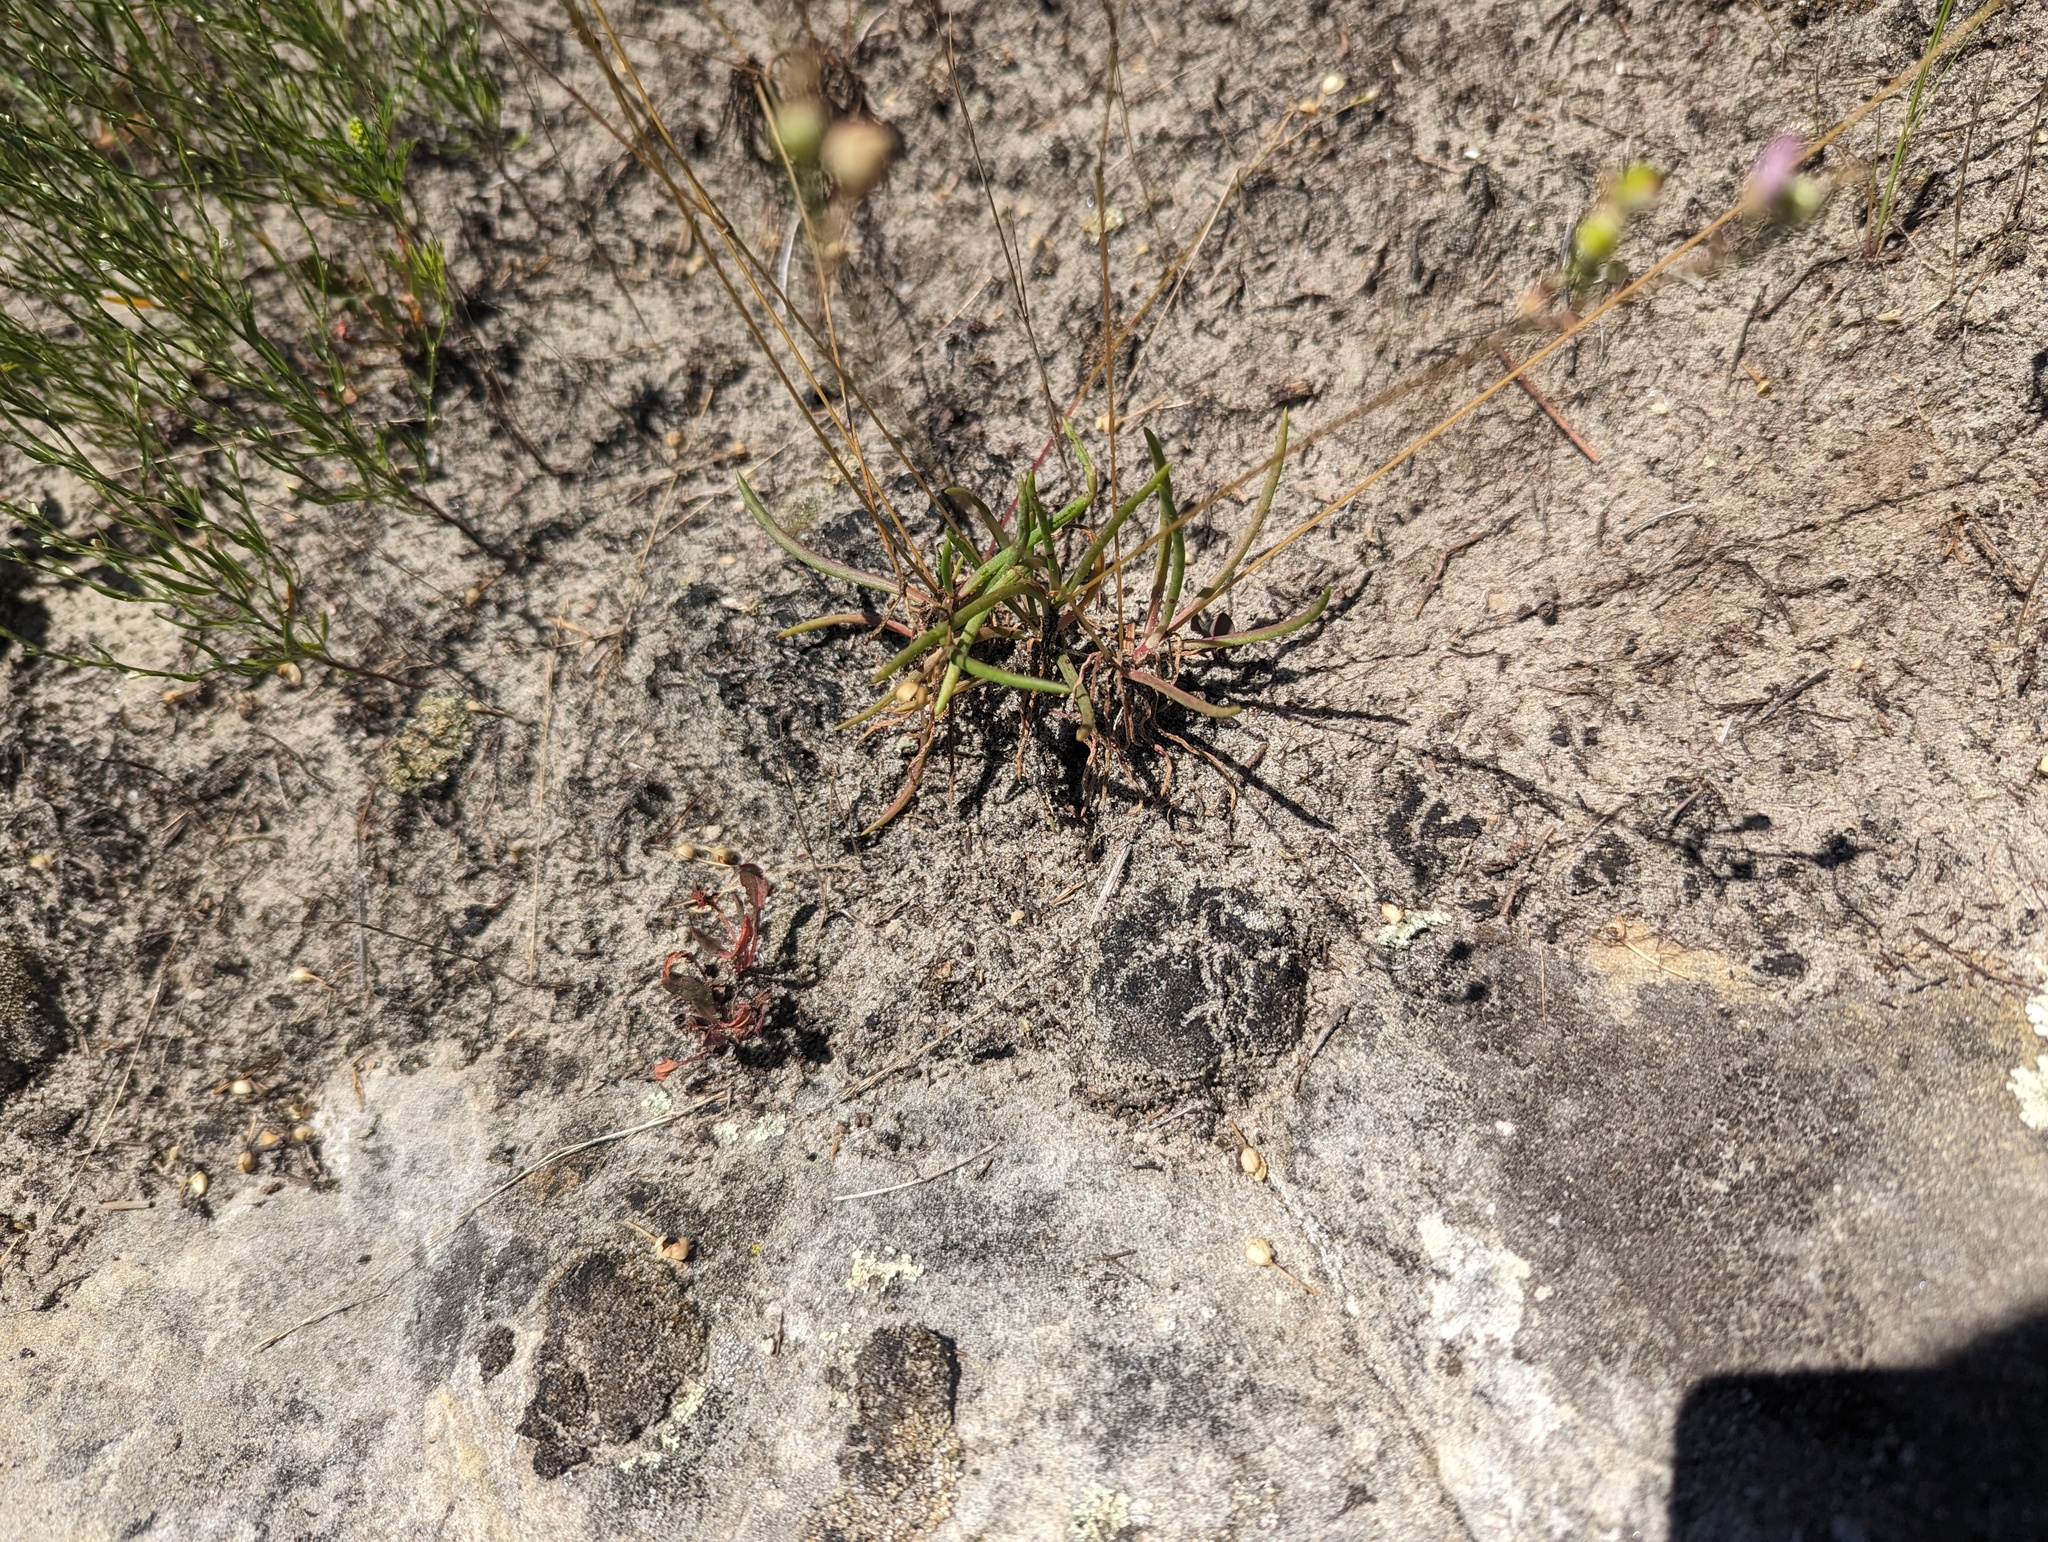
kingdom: Plantae
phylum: Tracheophyta
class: Magnoliopsida
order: Caryophyllales
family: Montiaceae
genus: Phemeranthus
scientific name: Phemeranthus rugospermus
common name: Prairie fameflower
